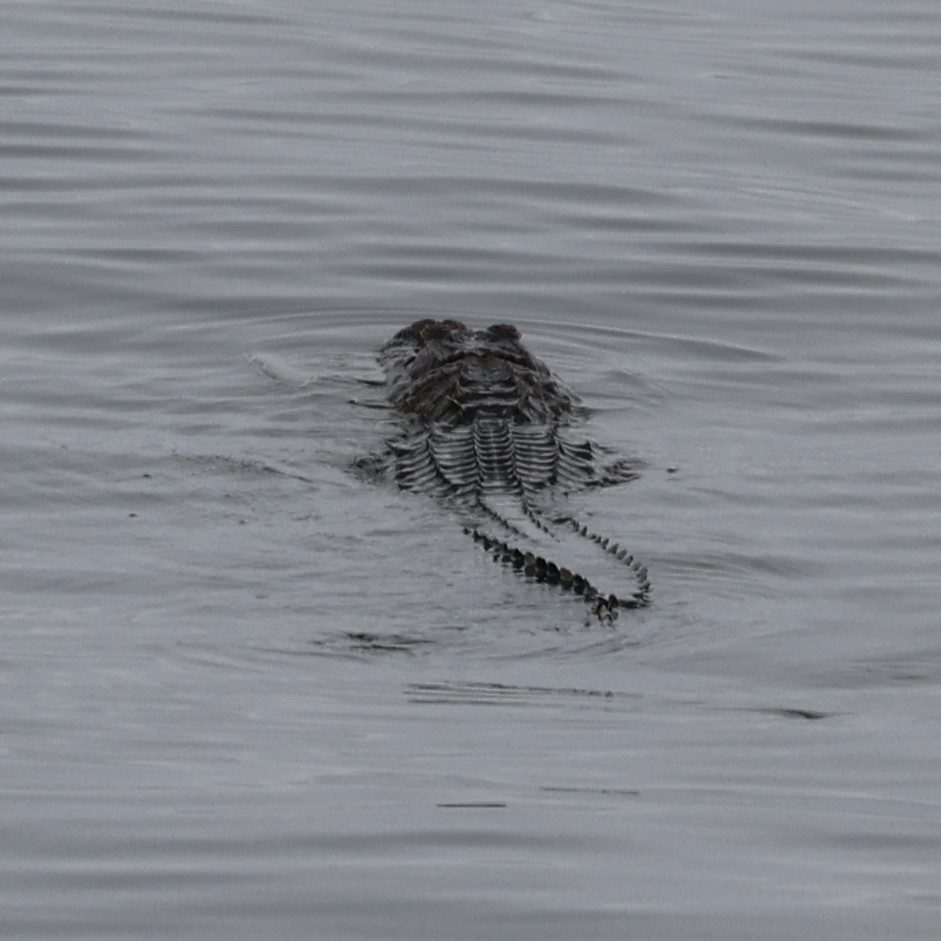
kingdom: Animalia
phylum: Chordata
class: Crocodylia
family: Alligatoridae
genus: Alligator
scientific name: Alligator mississippiensis
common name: American alligator
